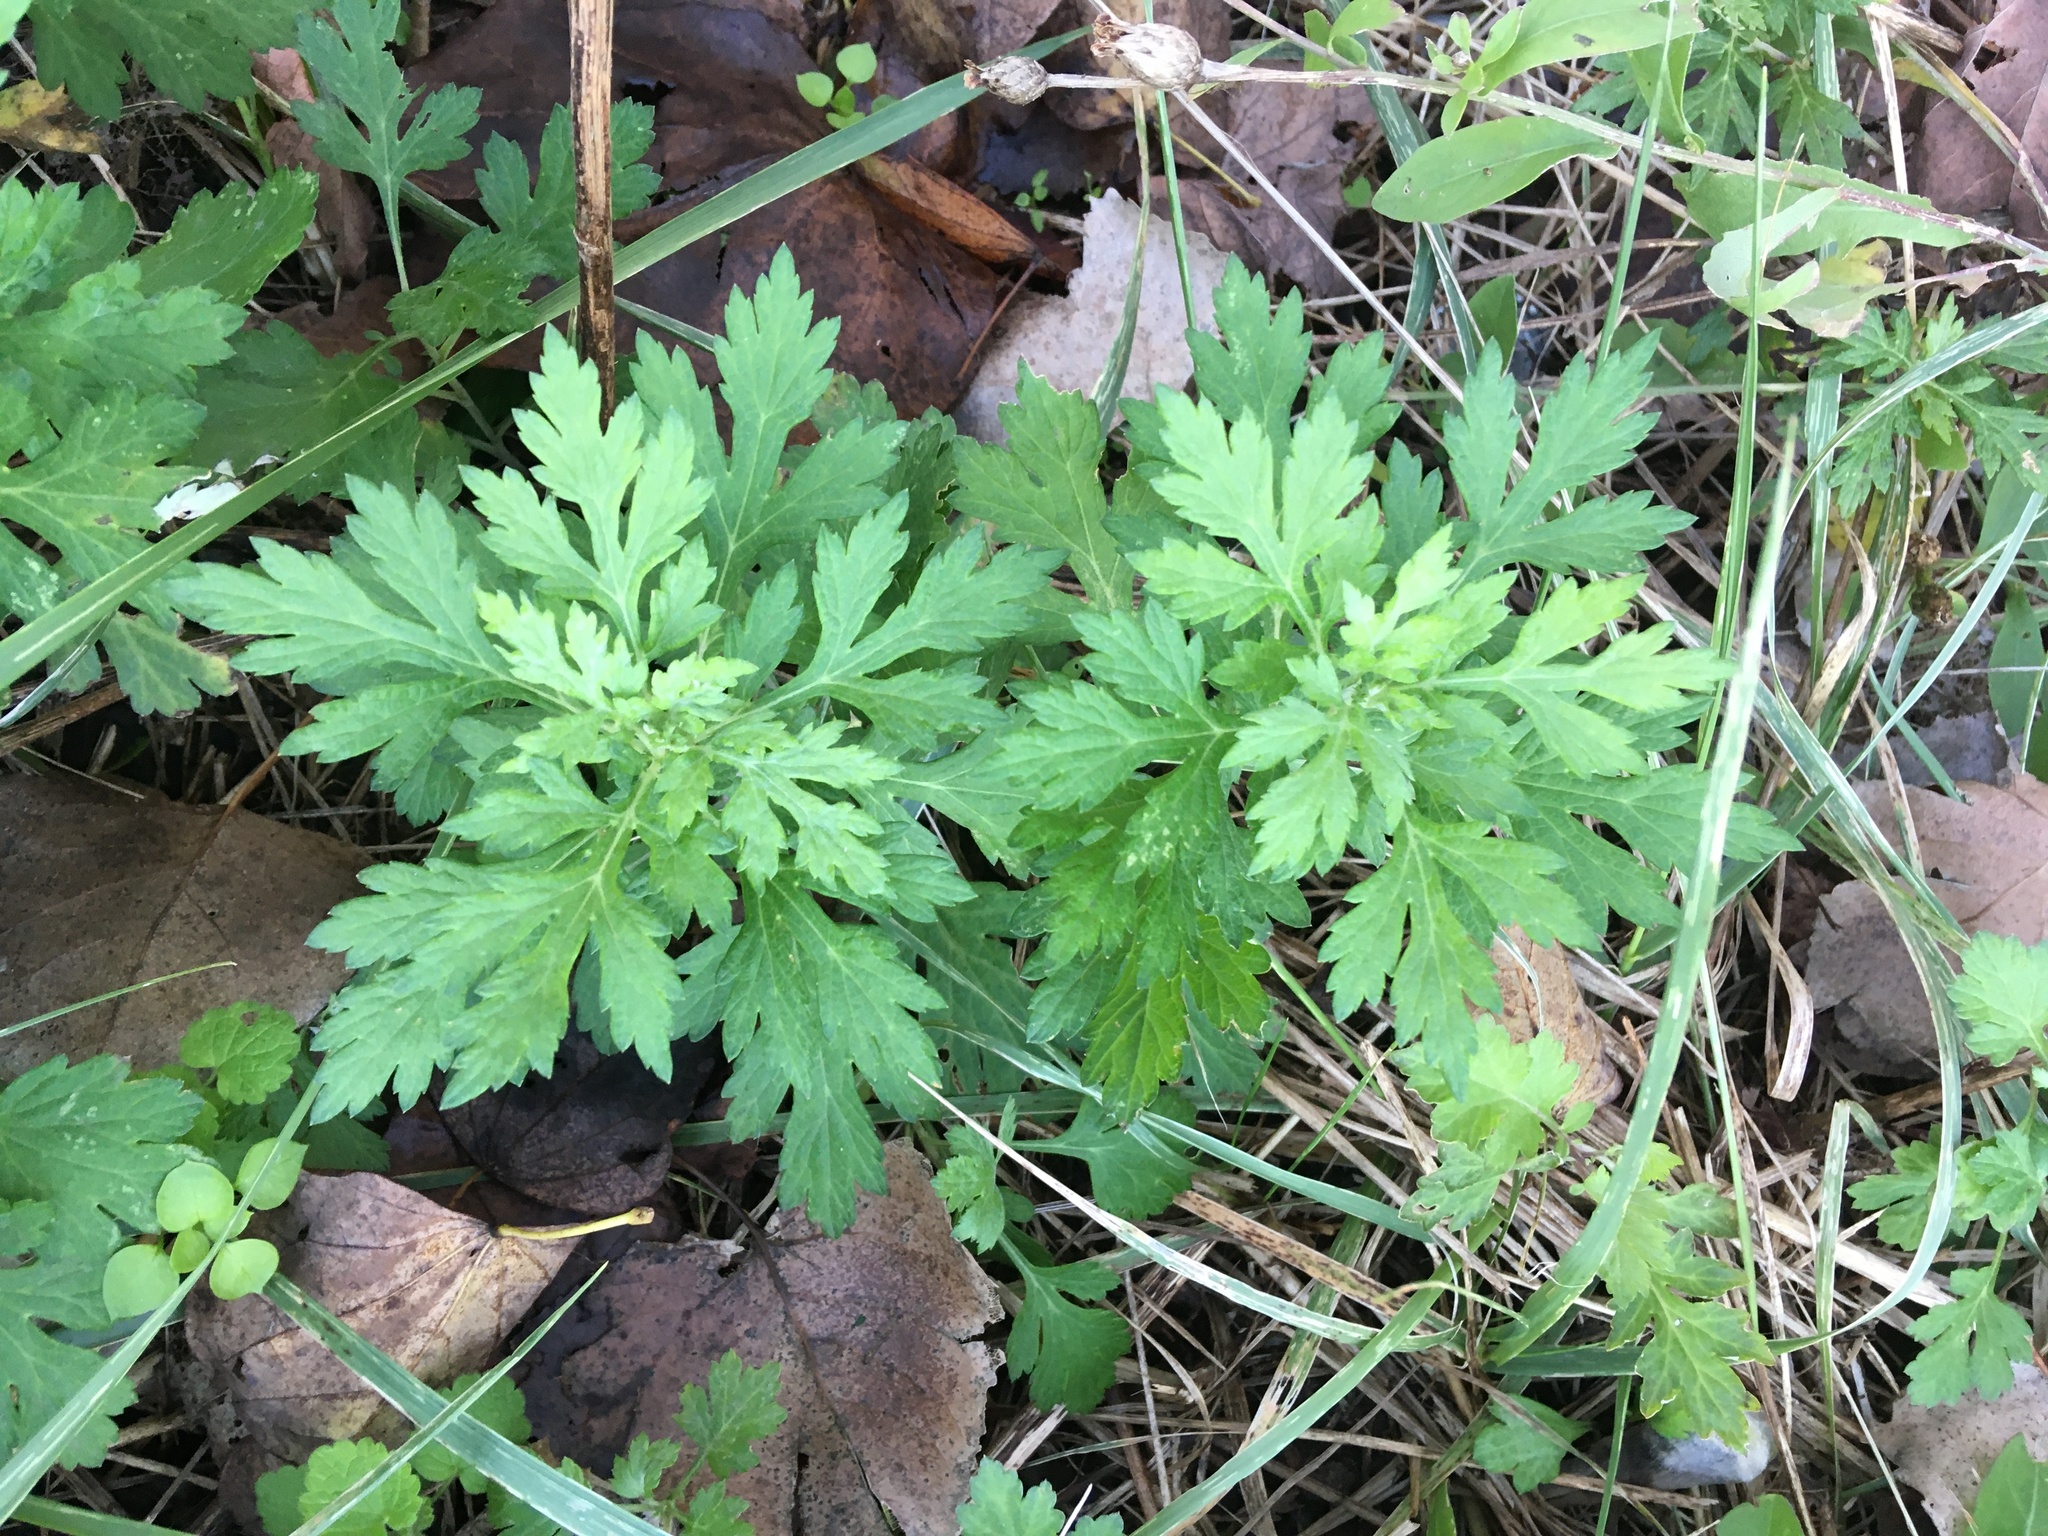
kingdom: Plantae
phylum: Tracheophyta
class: Magnoliopsida
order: Asterales
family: Asteraceae
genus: Artemisia
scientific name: Artemisia vulgaris
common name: Mugwort
